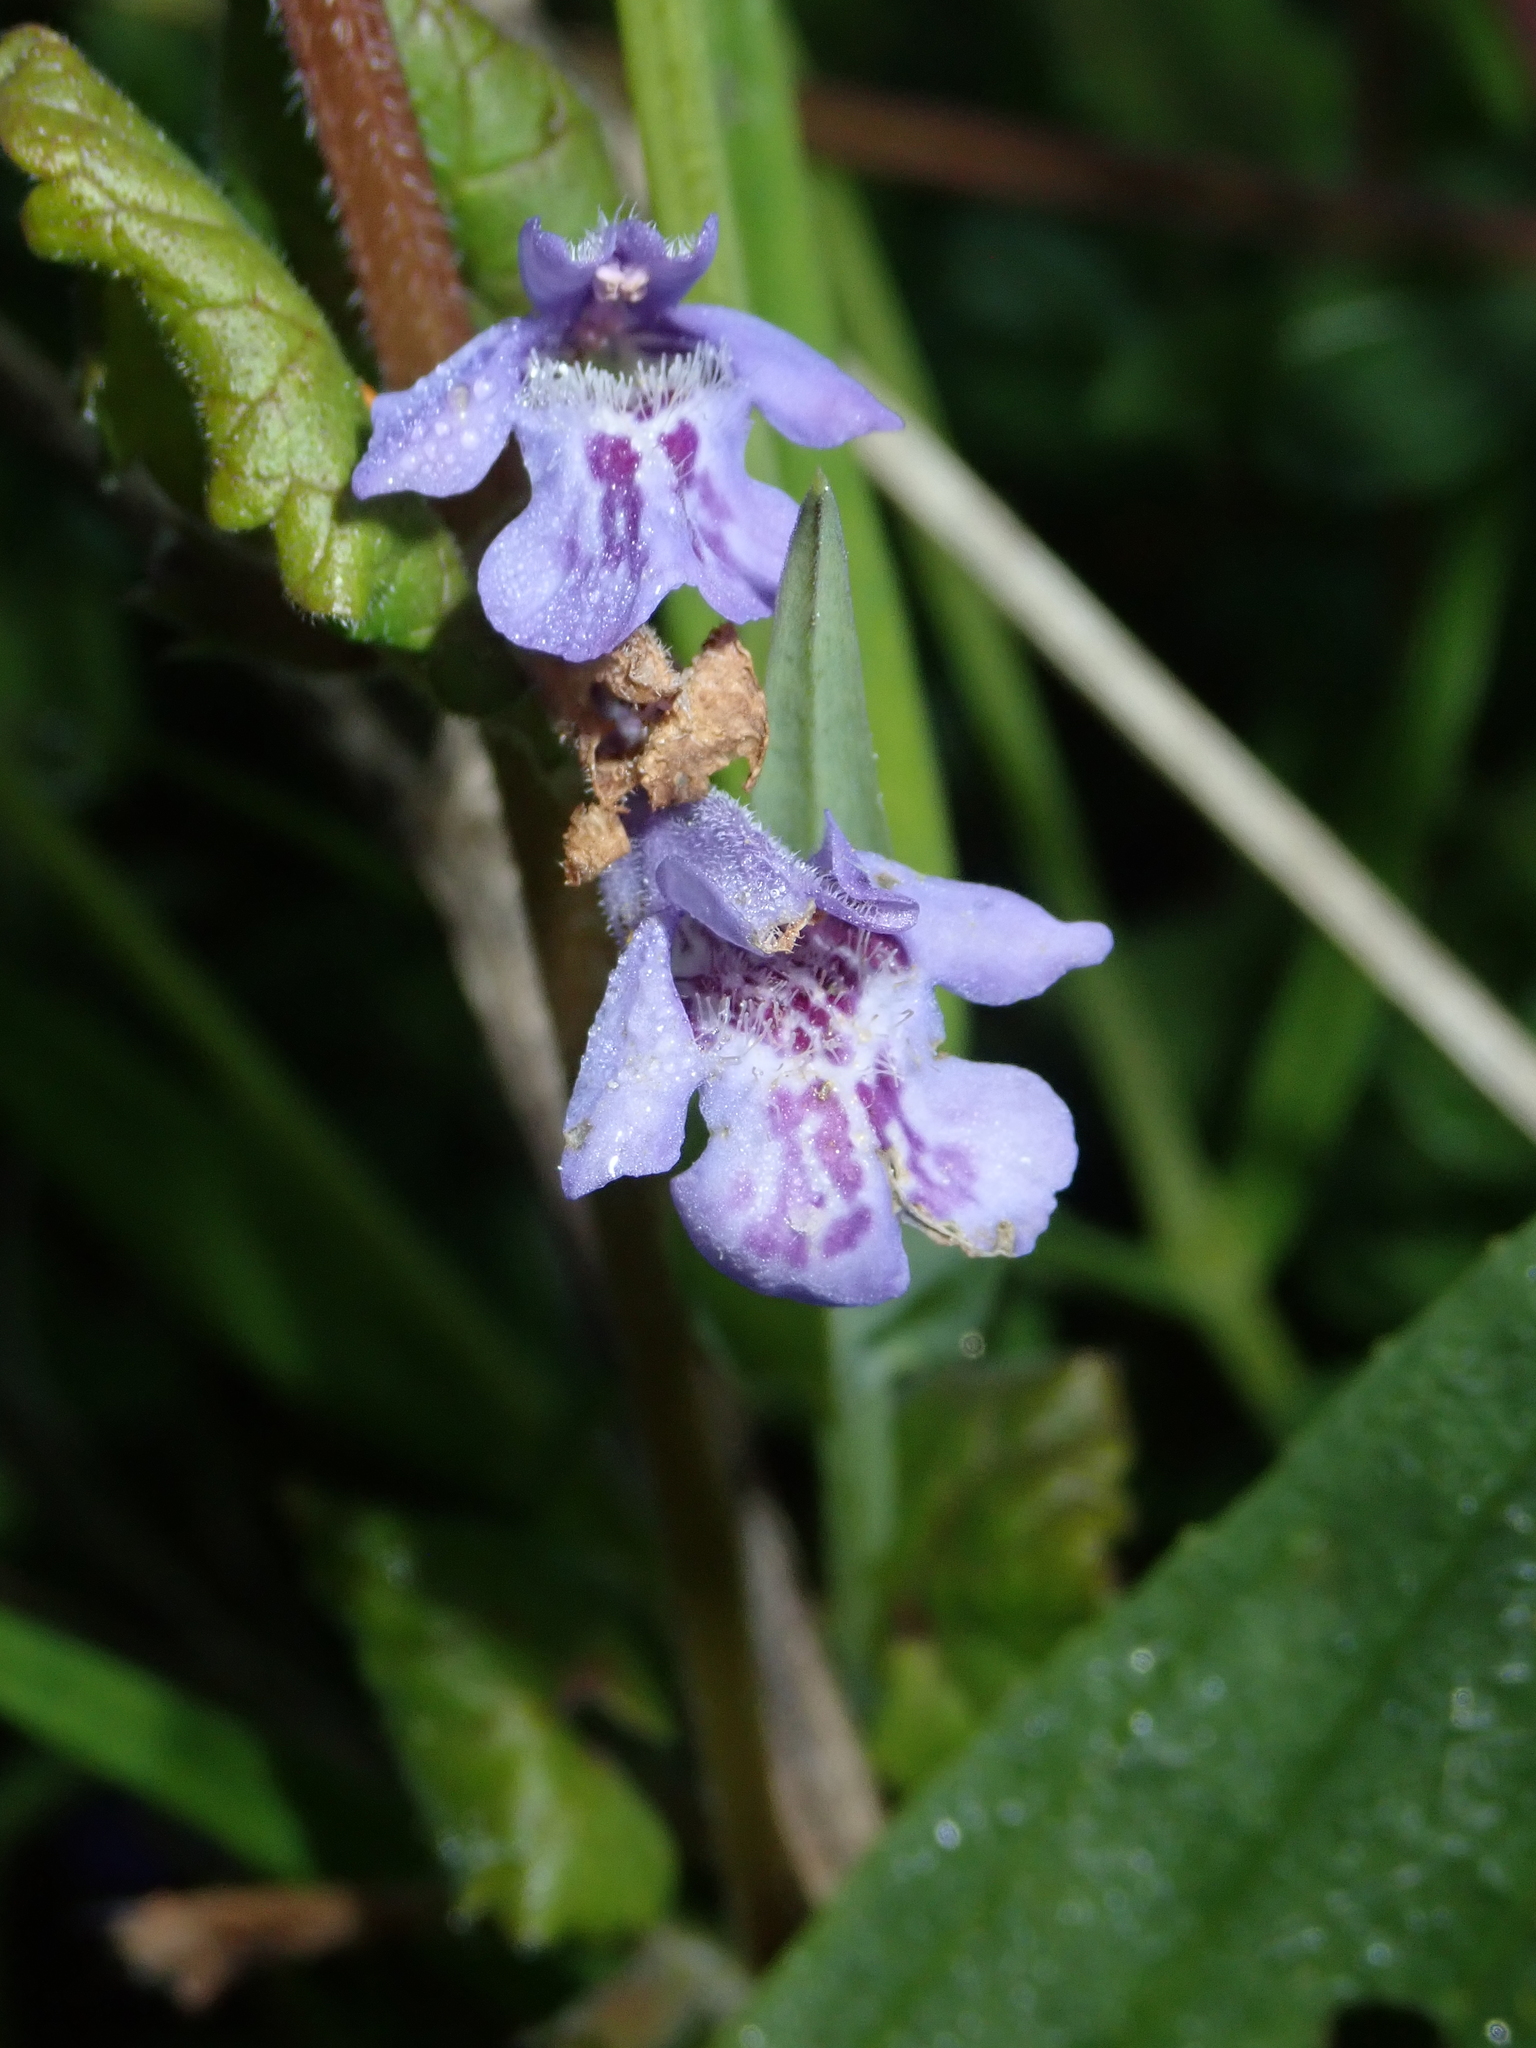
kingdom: Plantae
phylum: Tracheophyta
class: Magnoliopsida
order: Lamiales
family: Lamiaceae
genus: Glechoma
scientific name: Glechoma hederacea
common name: Ground ivy
